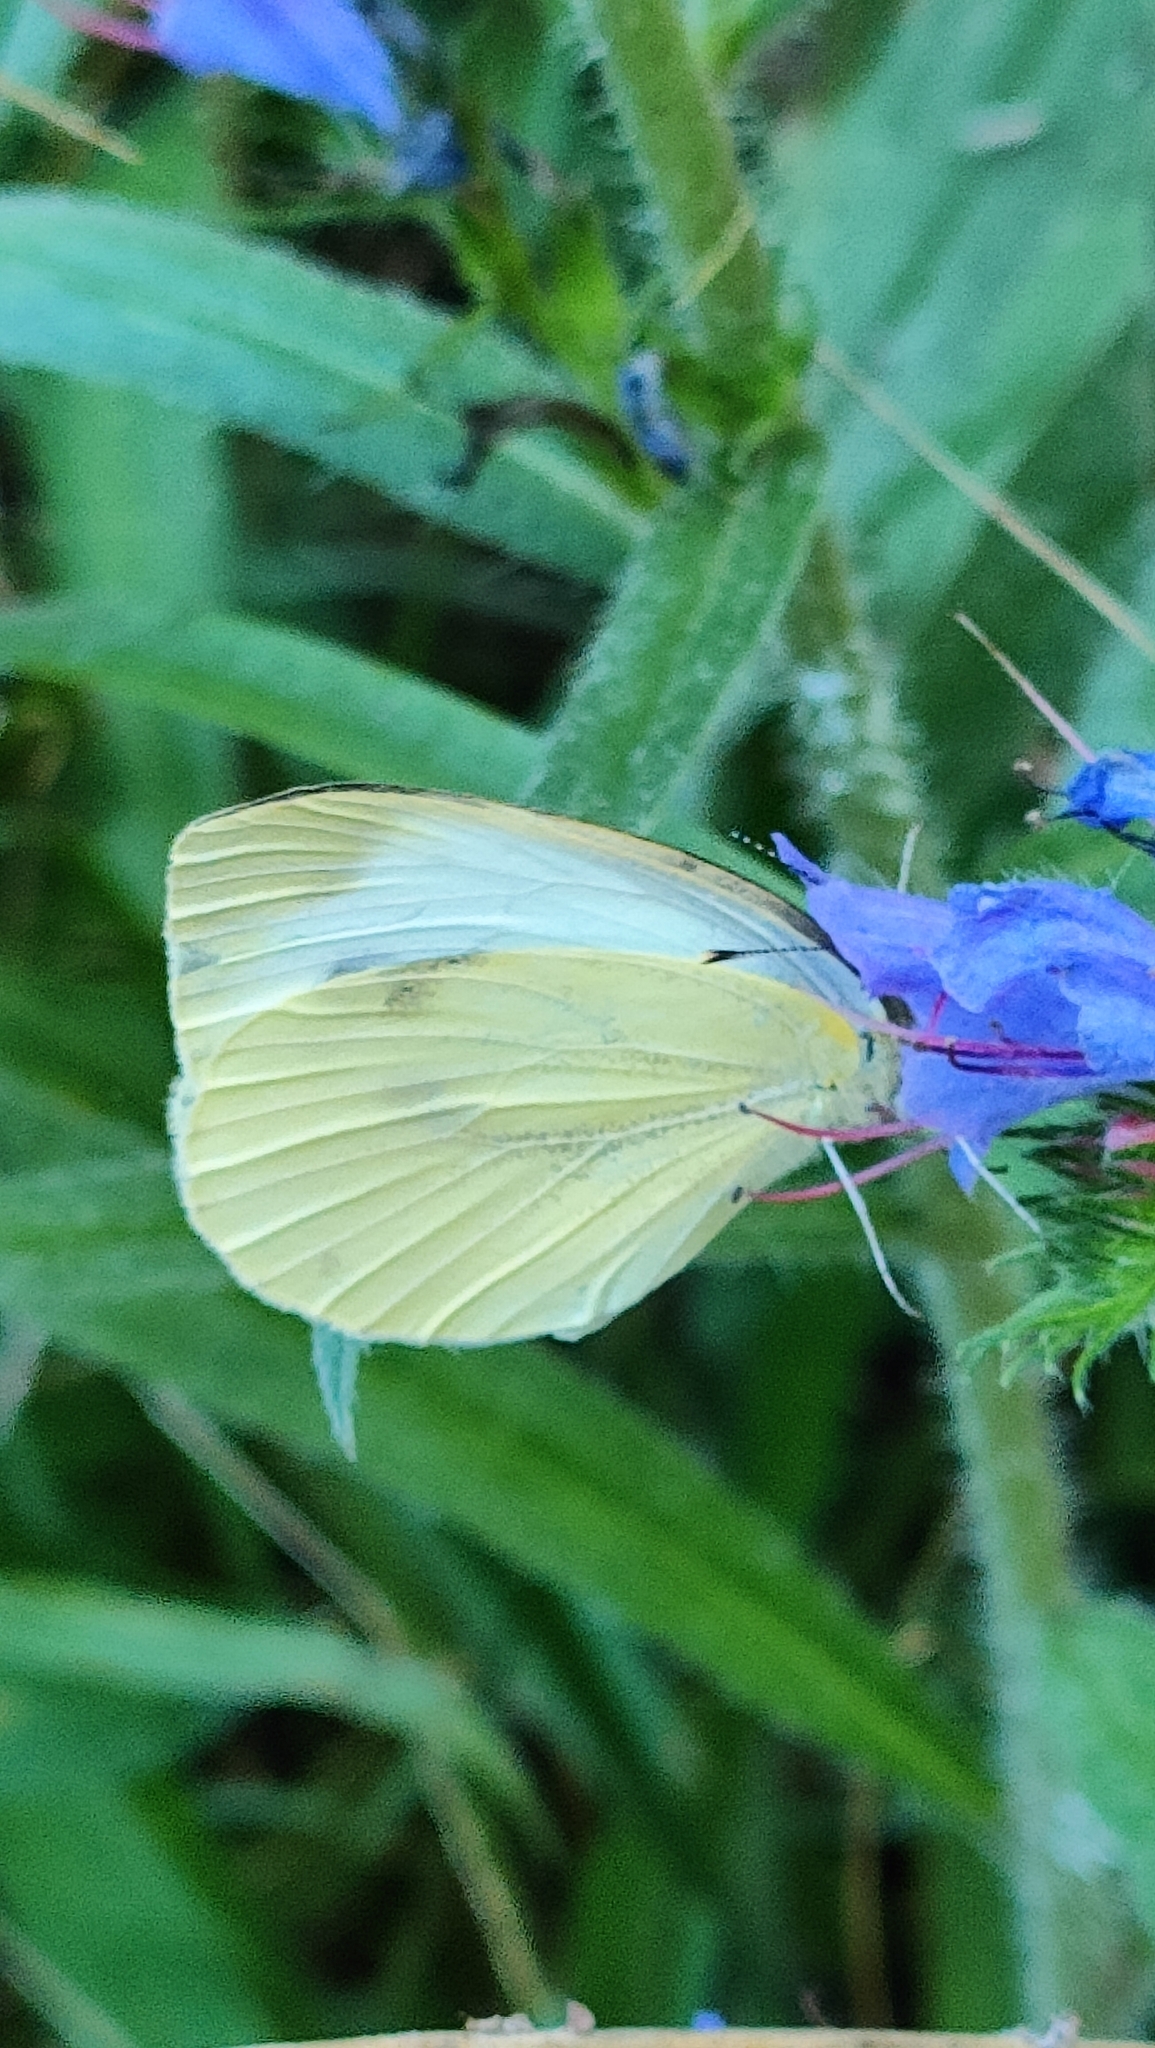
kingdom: Animalia
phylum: Arthropoda
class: Insecta
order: Lepidoptera
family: Pieridae
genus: Pieris
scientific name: Pieris rapae
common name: Small white
